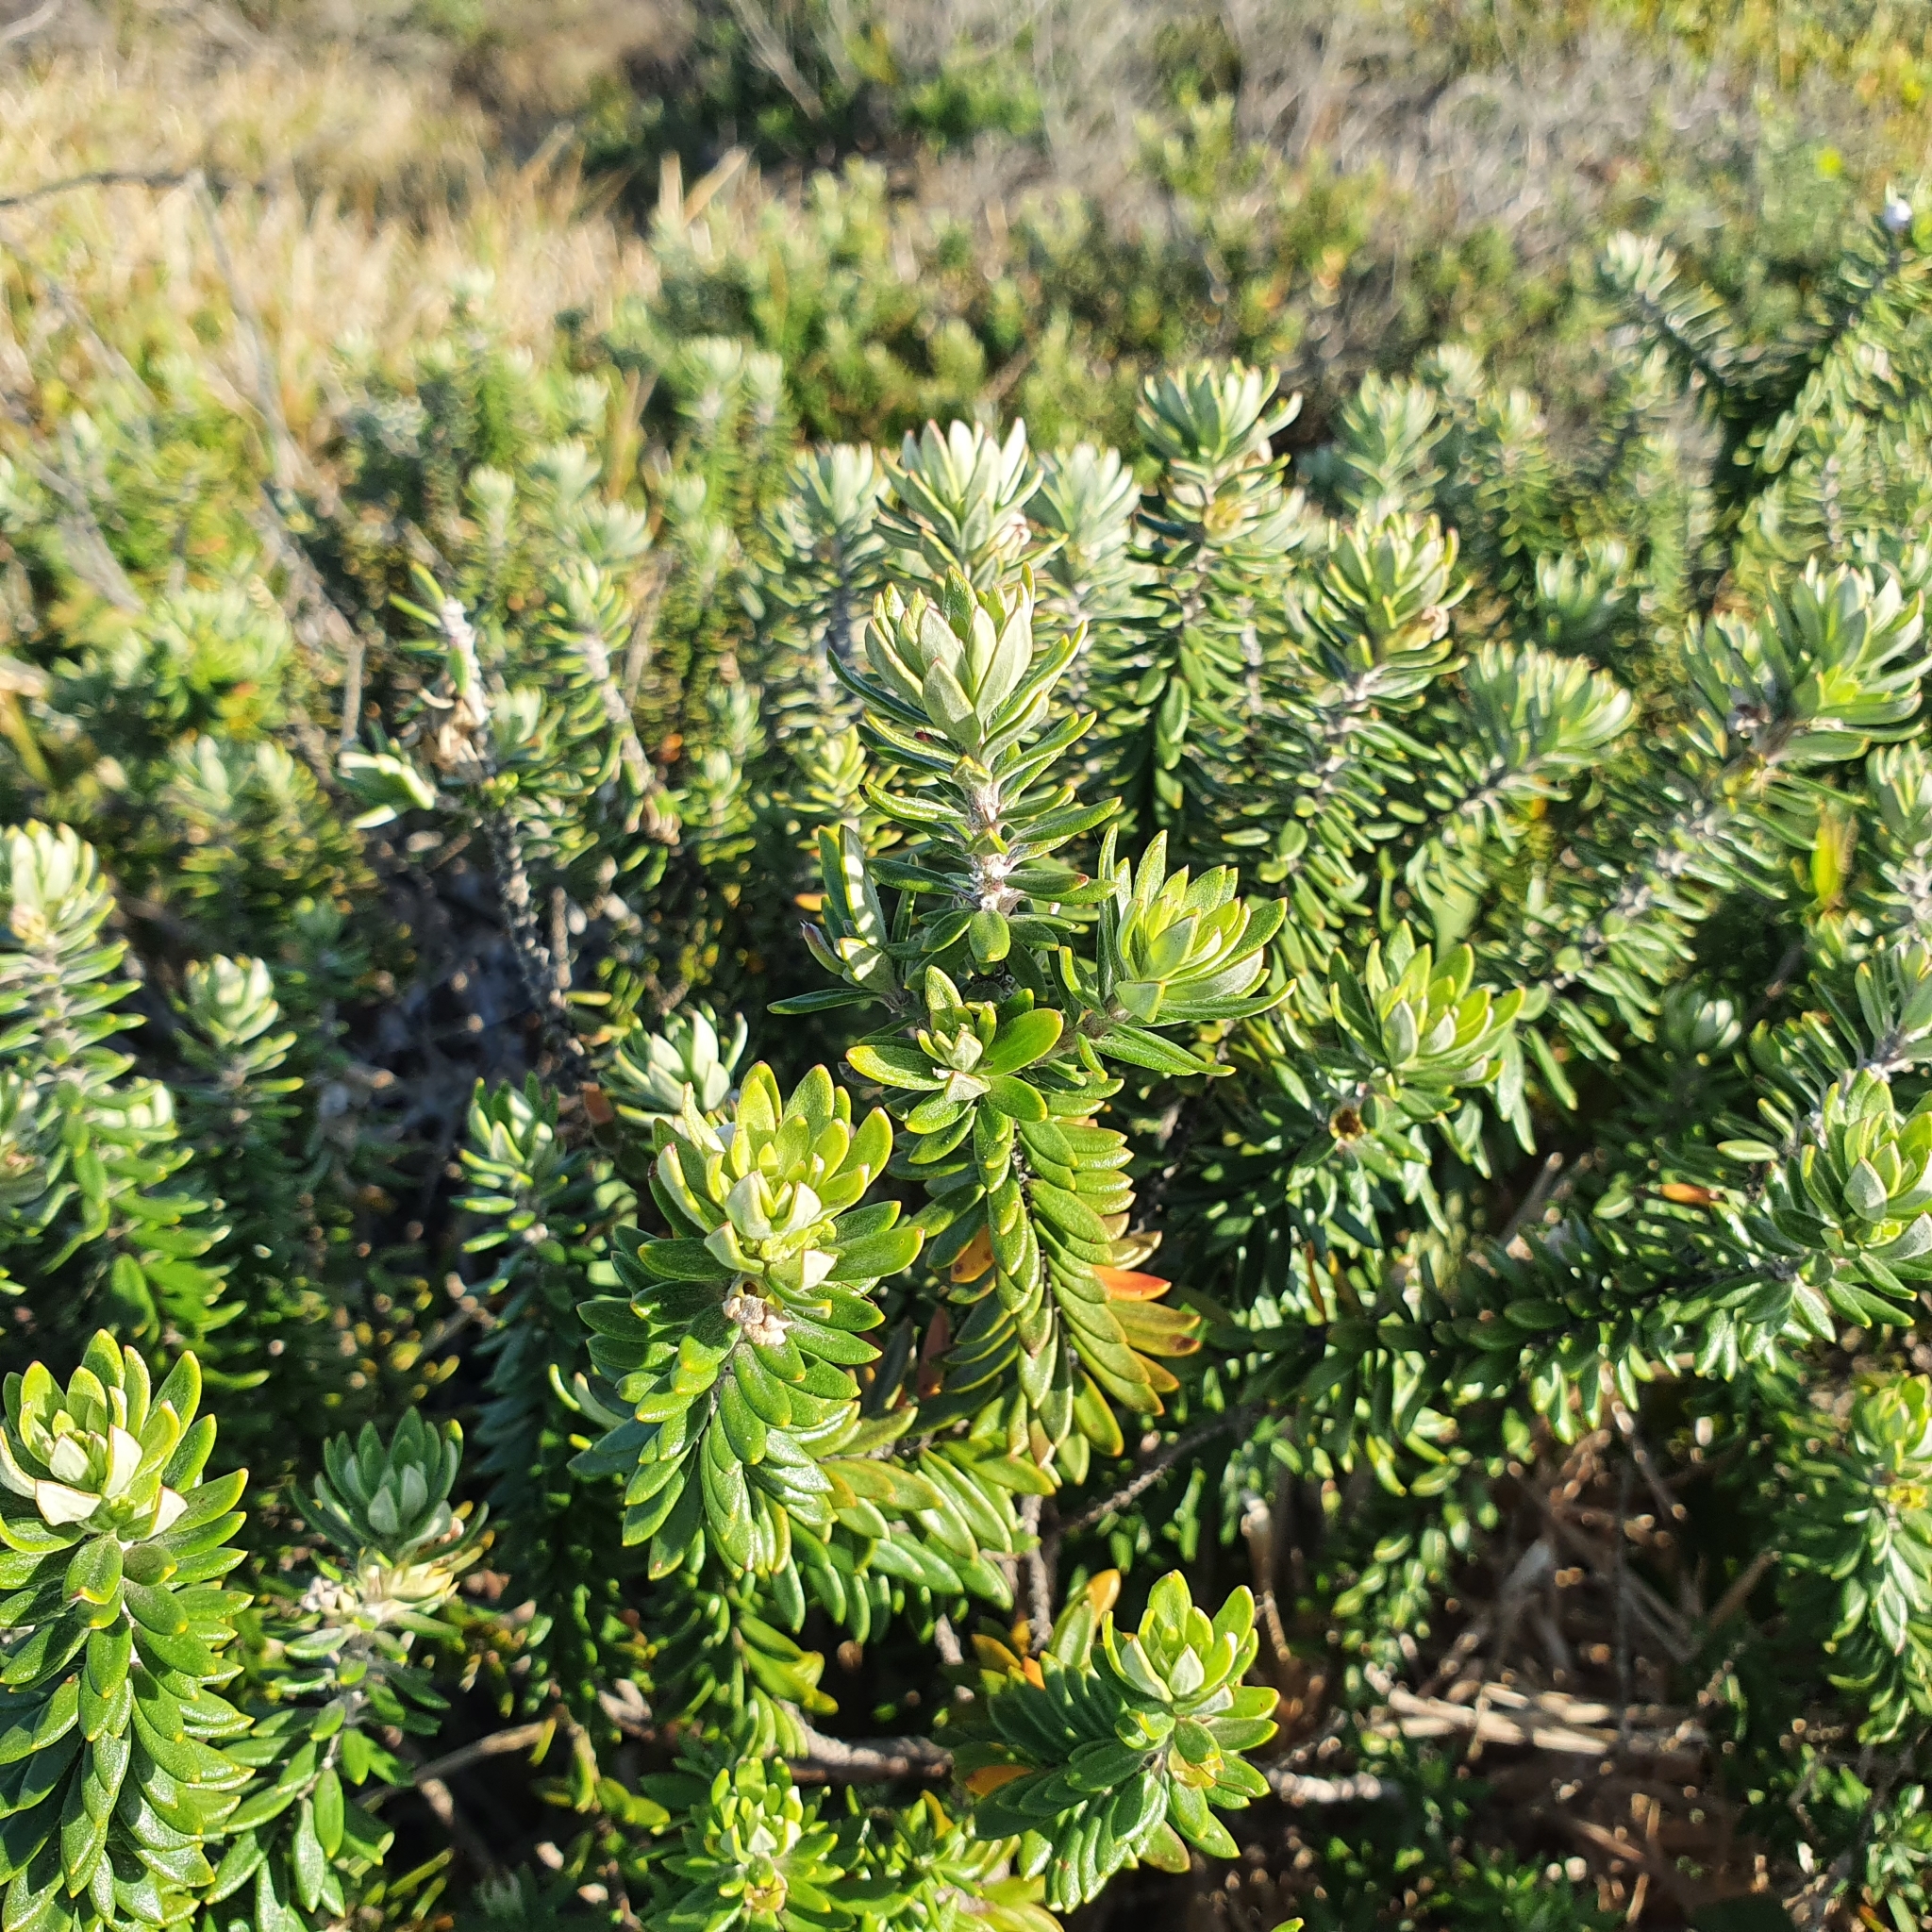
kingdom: Plantae
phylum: Tracheophyta
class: Magnoliopsida
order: Lamiales
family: Lamiaceae
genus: Westringia
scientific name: Westringia fruticosa
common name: Coastal-rosemary
